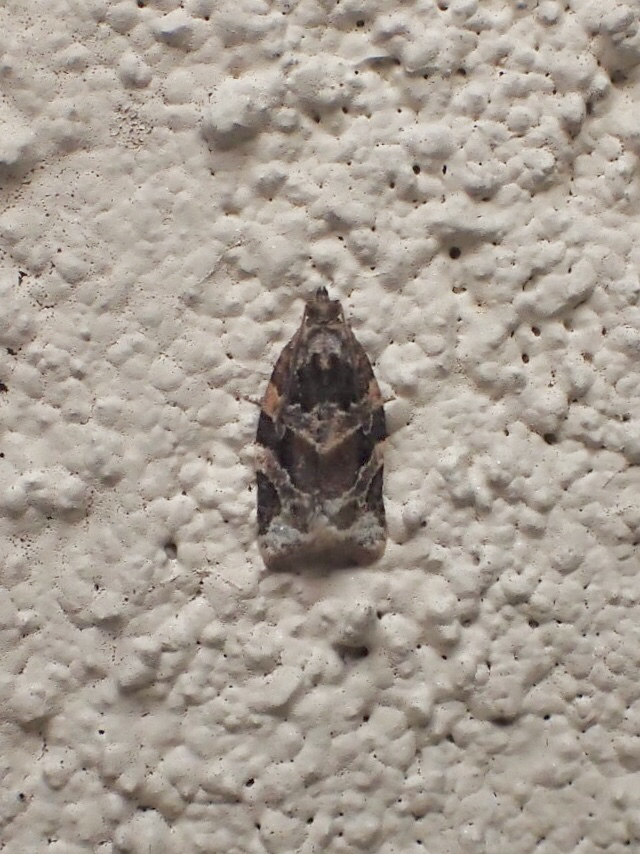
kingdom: Animalia
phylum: Arthropoda
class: Insecta
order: Lepidoptera
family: Tortricidae
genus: Argyrotaenia
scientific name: Argyrotaenia velutinana
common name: Red-banded leafroller moth
